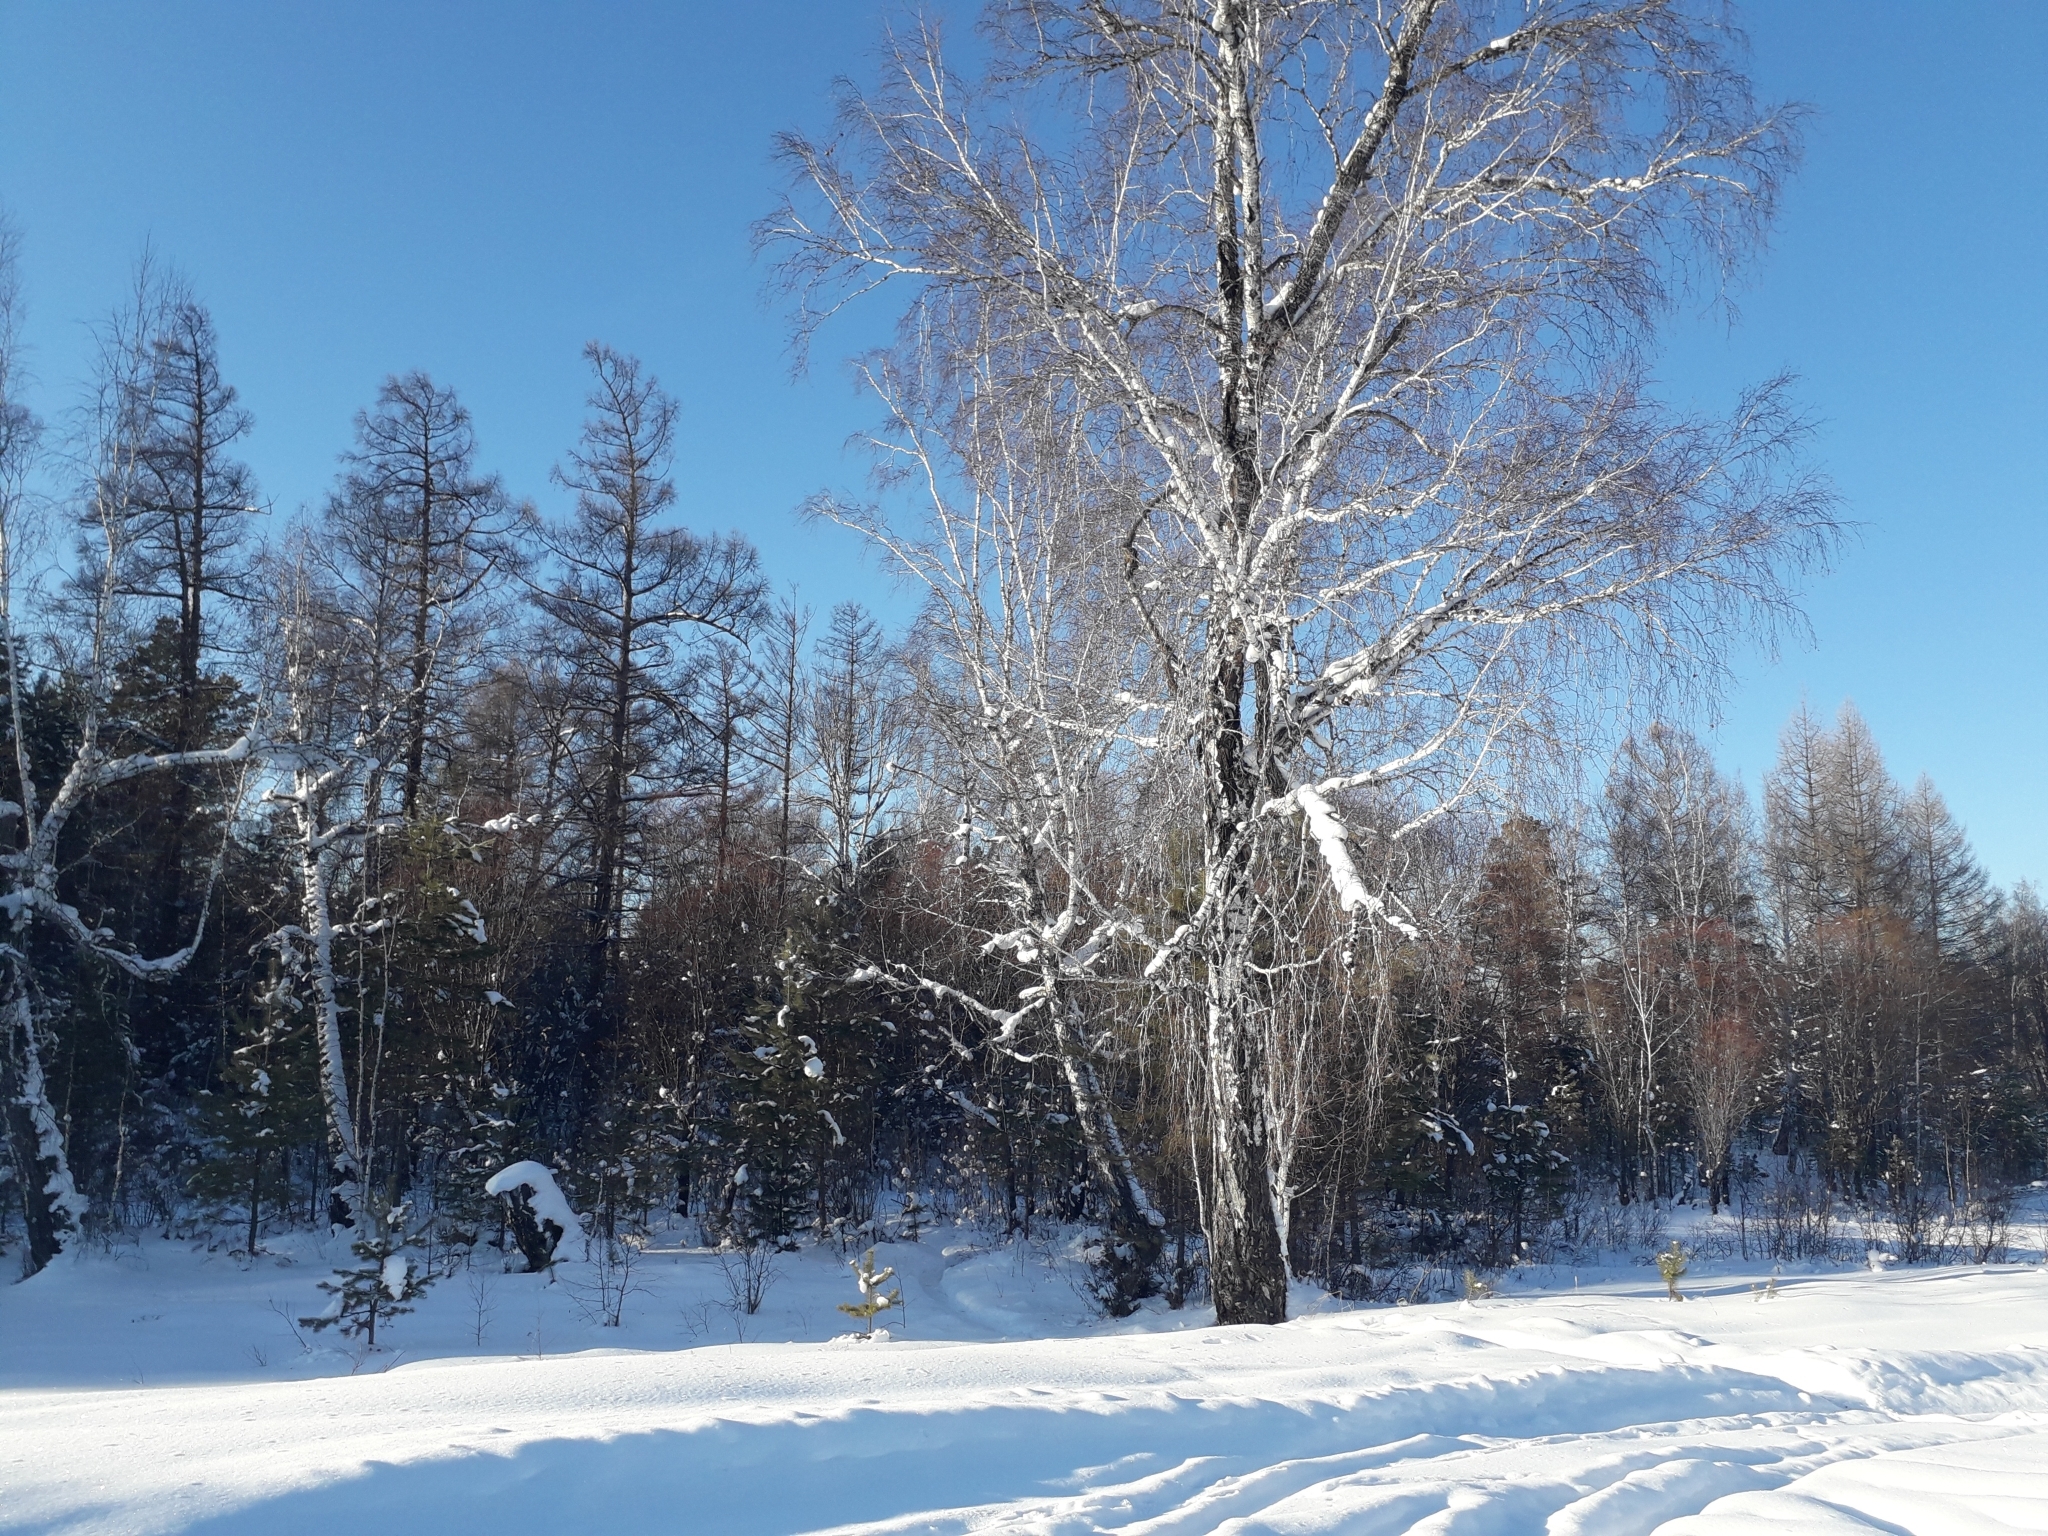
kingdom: Plantae
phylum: Tracheophyta
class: Magnoliopsida
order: Fagales
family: Betulaceae
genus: Betula
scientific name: Betula pendula
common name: Silver birch
